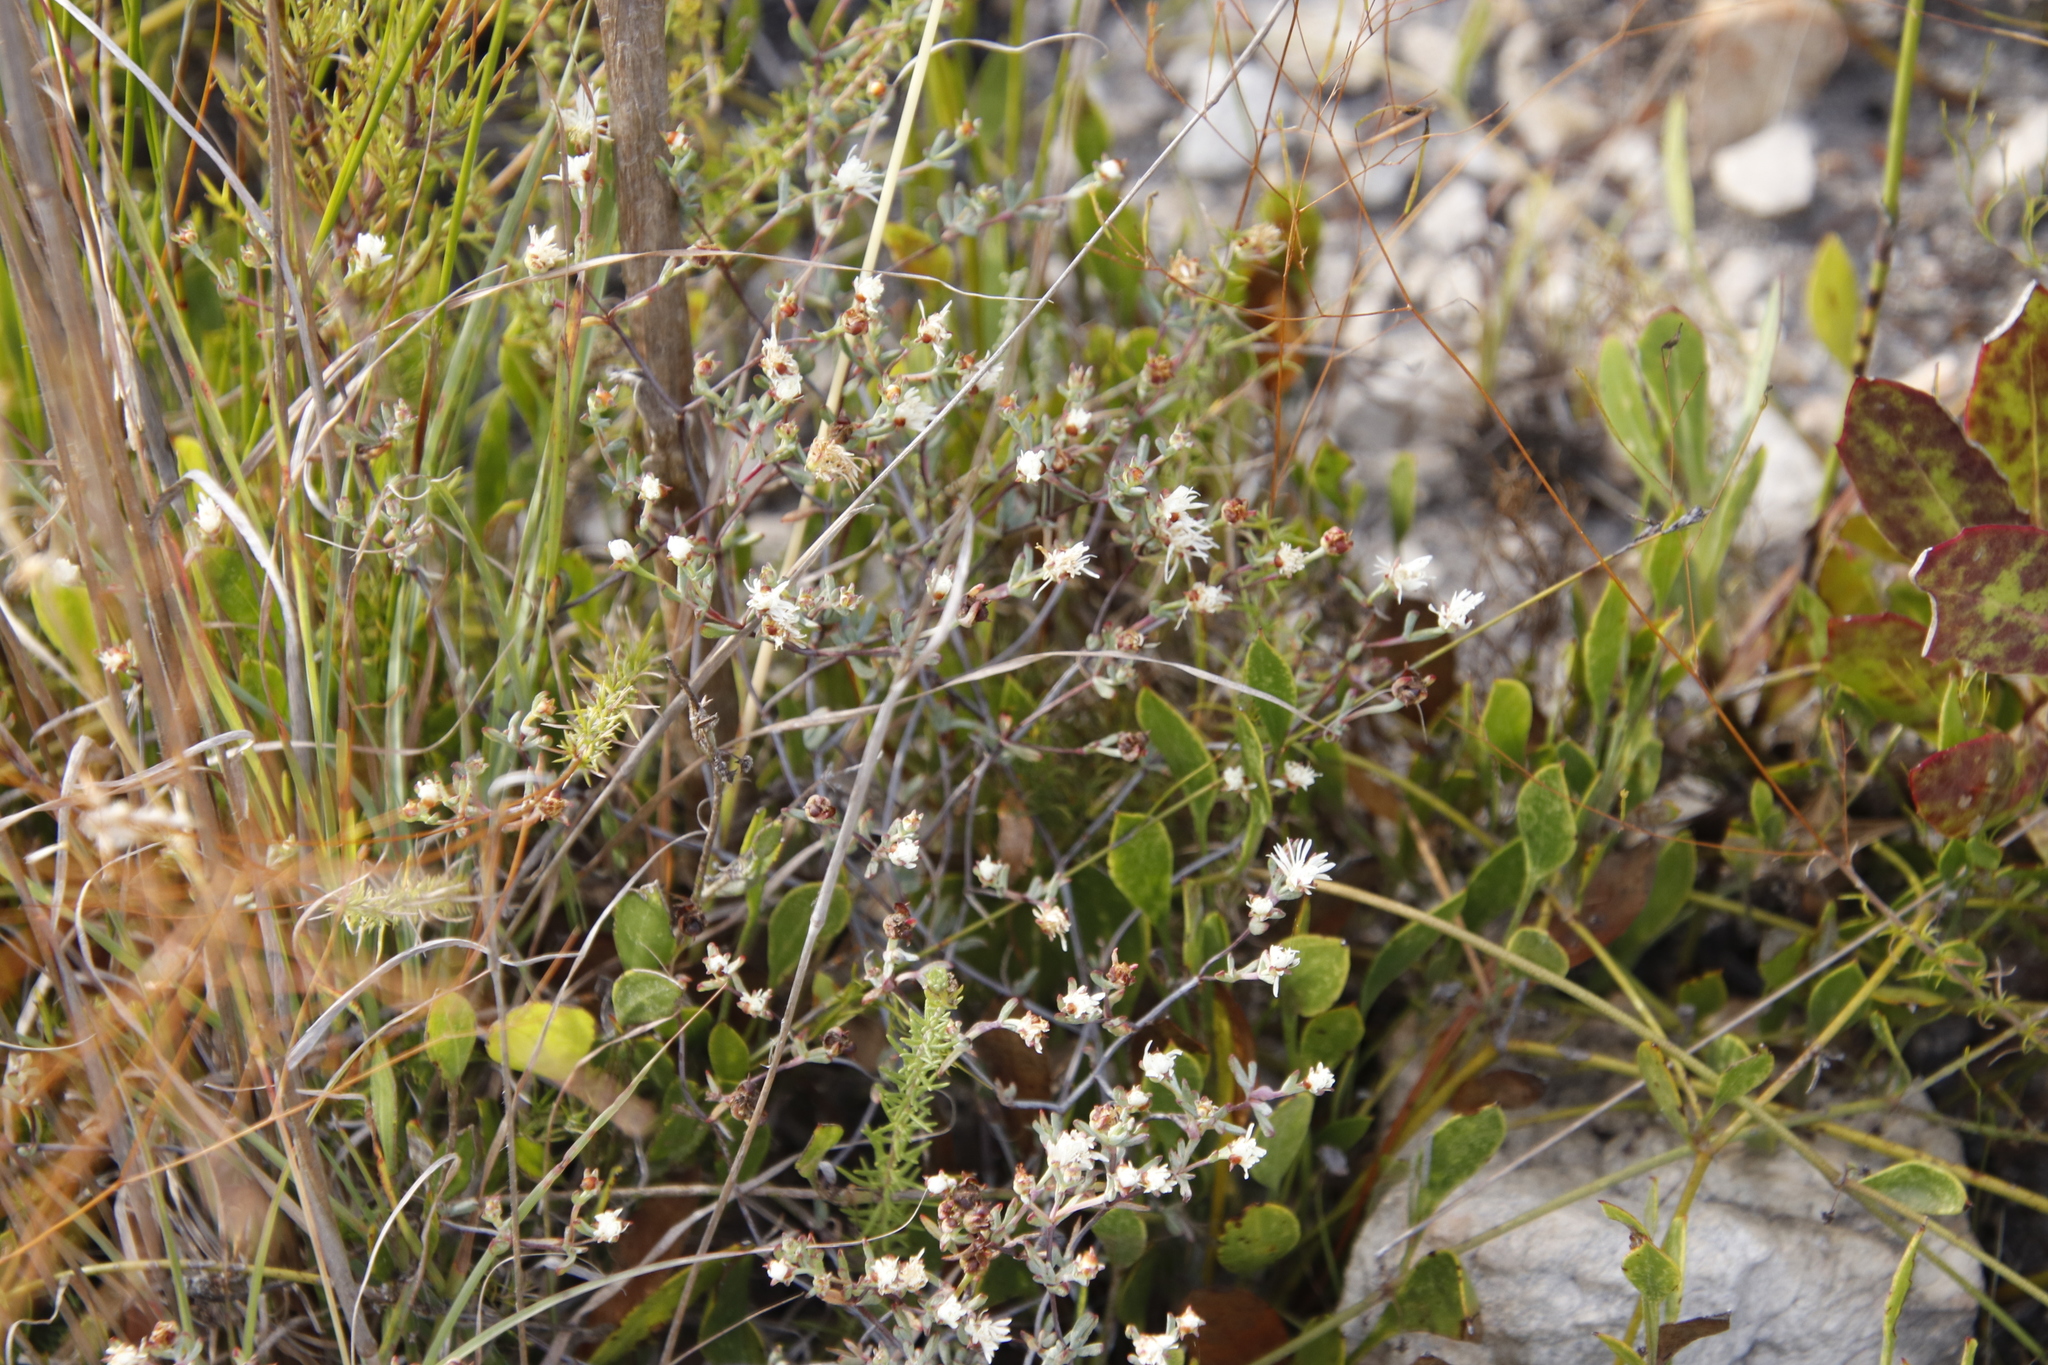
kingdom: Plantae
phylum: Tracheophyta
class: Magnoliopsida
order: Caryophyllales
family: Aizoaceae
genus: Lampranthus
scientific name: Lampranthus falcatus
